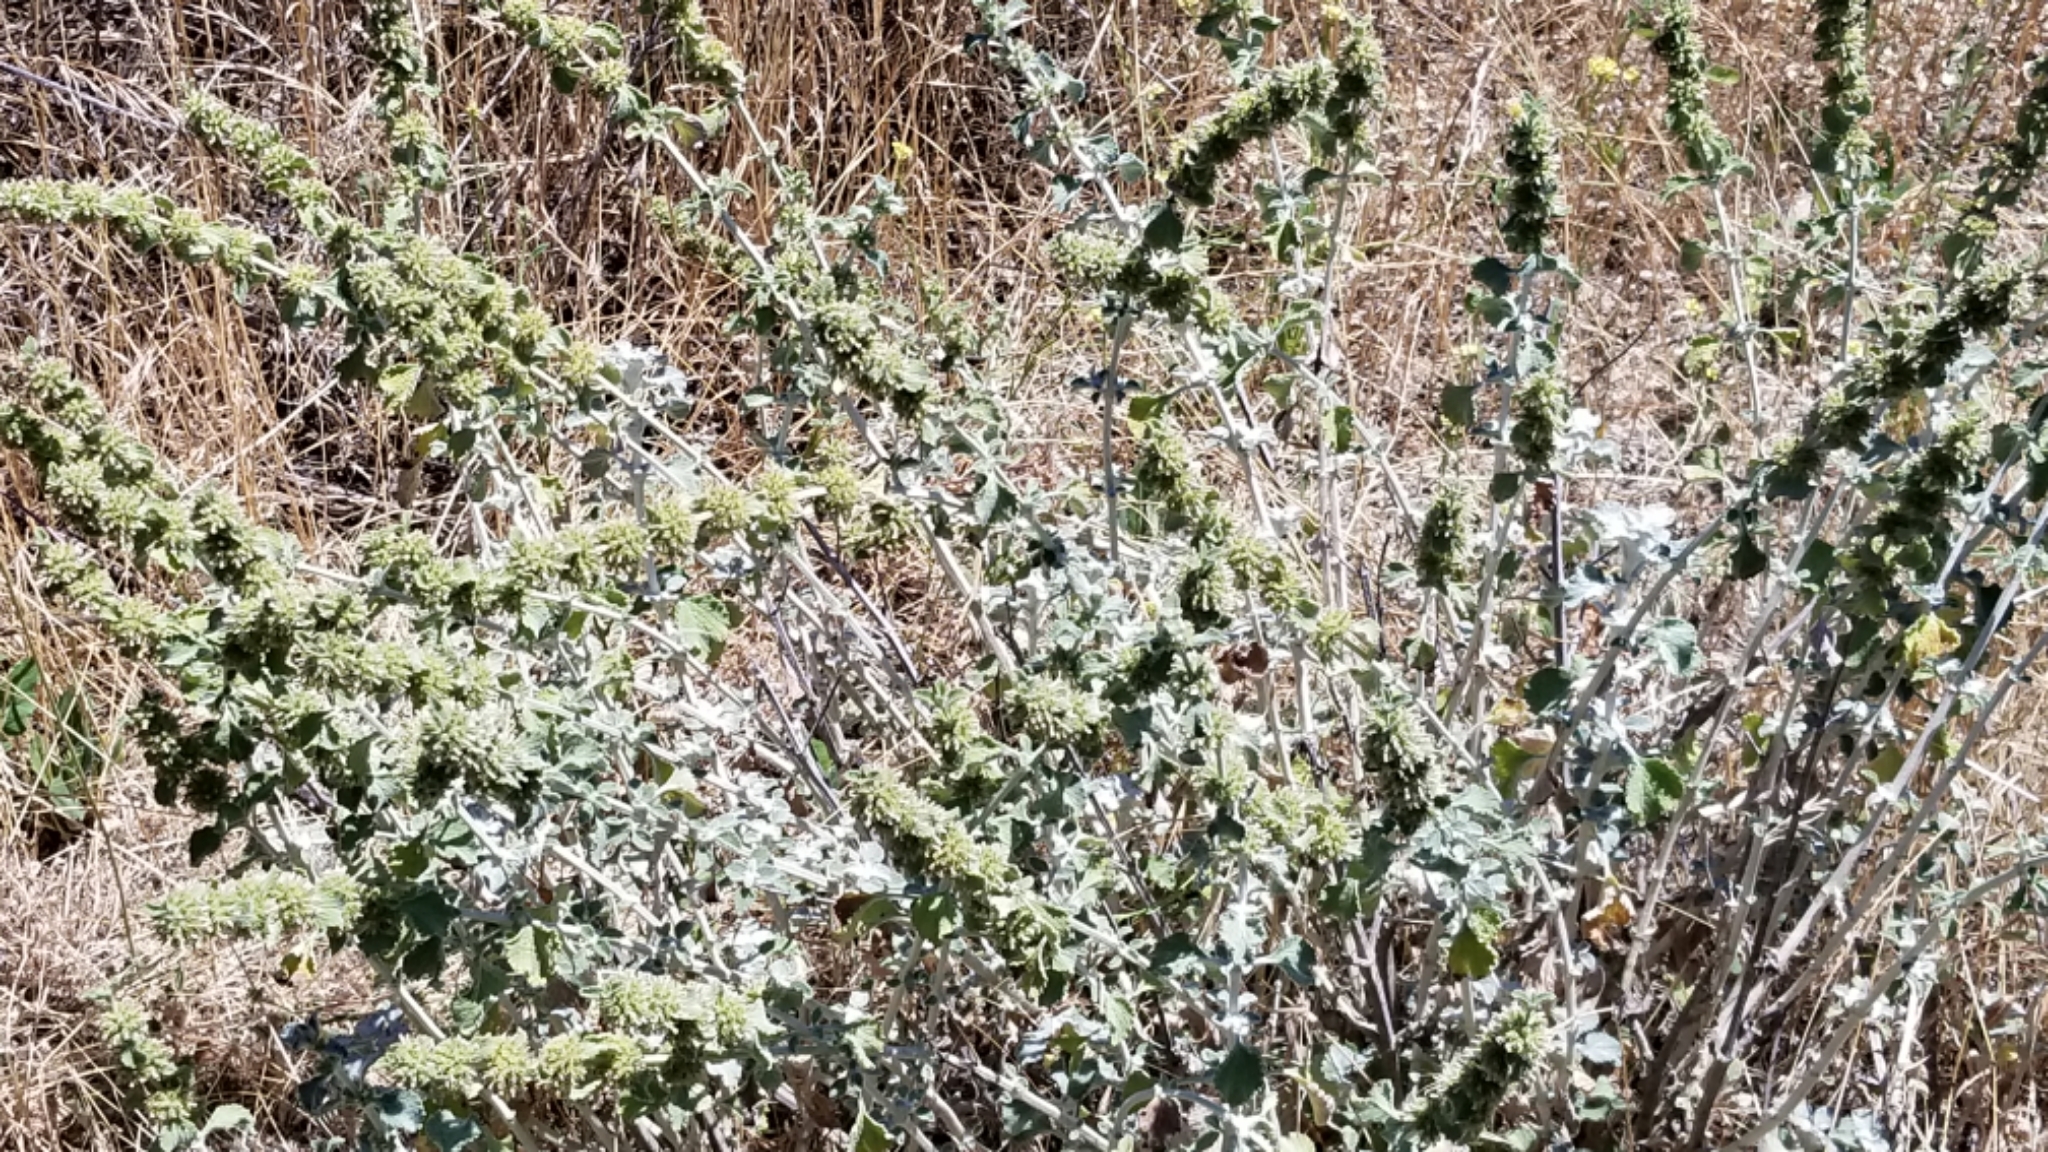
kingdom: Plantae
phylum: Tracheophyta
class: Magnoliopsida
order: Lamiales
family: Lamiaceae
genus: Marrubium
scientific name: Marrubium vulgare
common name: Horehound
